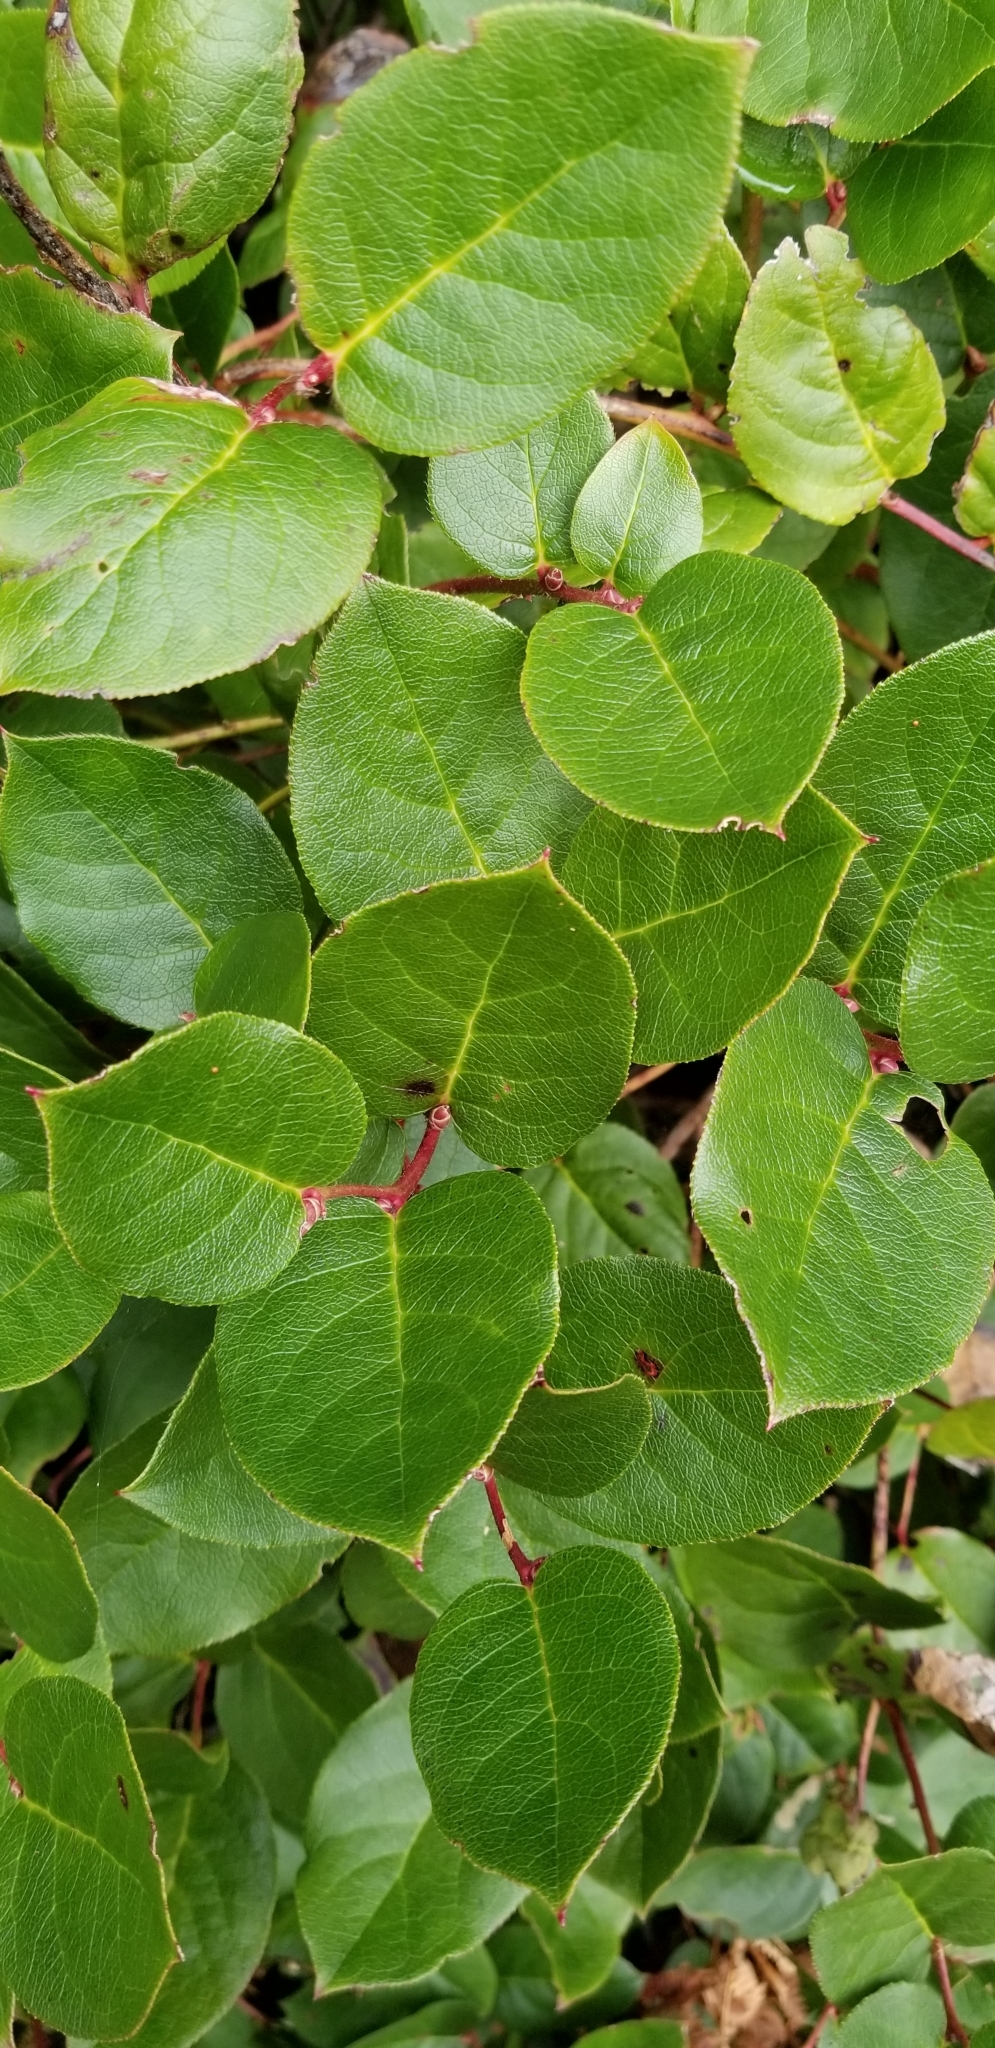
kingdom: Plantae
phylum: Tracheophyta
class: Magnoliopsida
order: Ericales
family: Ericaceae
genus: Gaultheria
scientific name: Gaultheria shallon
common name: Shallon
